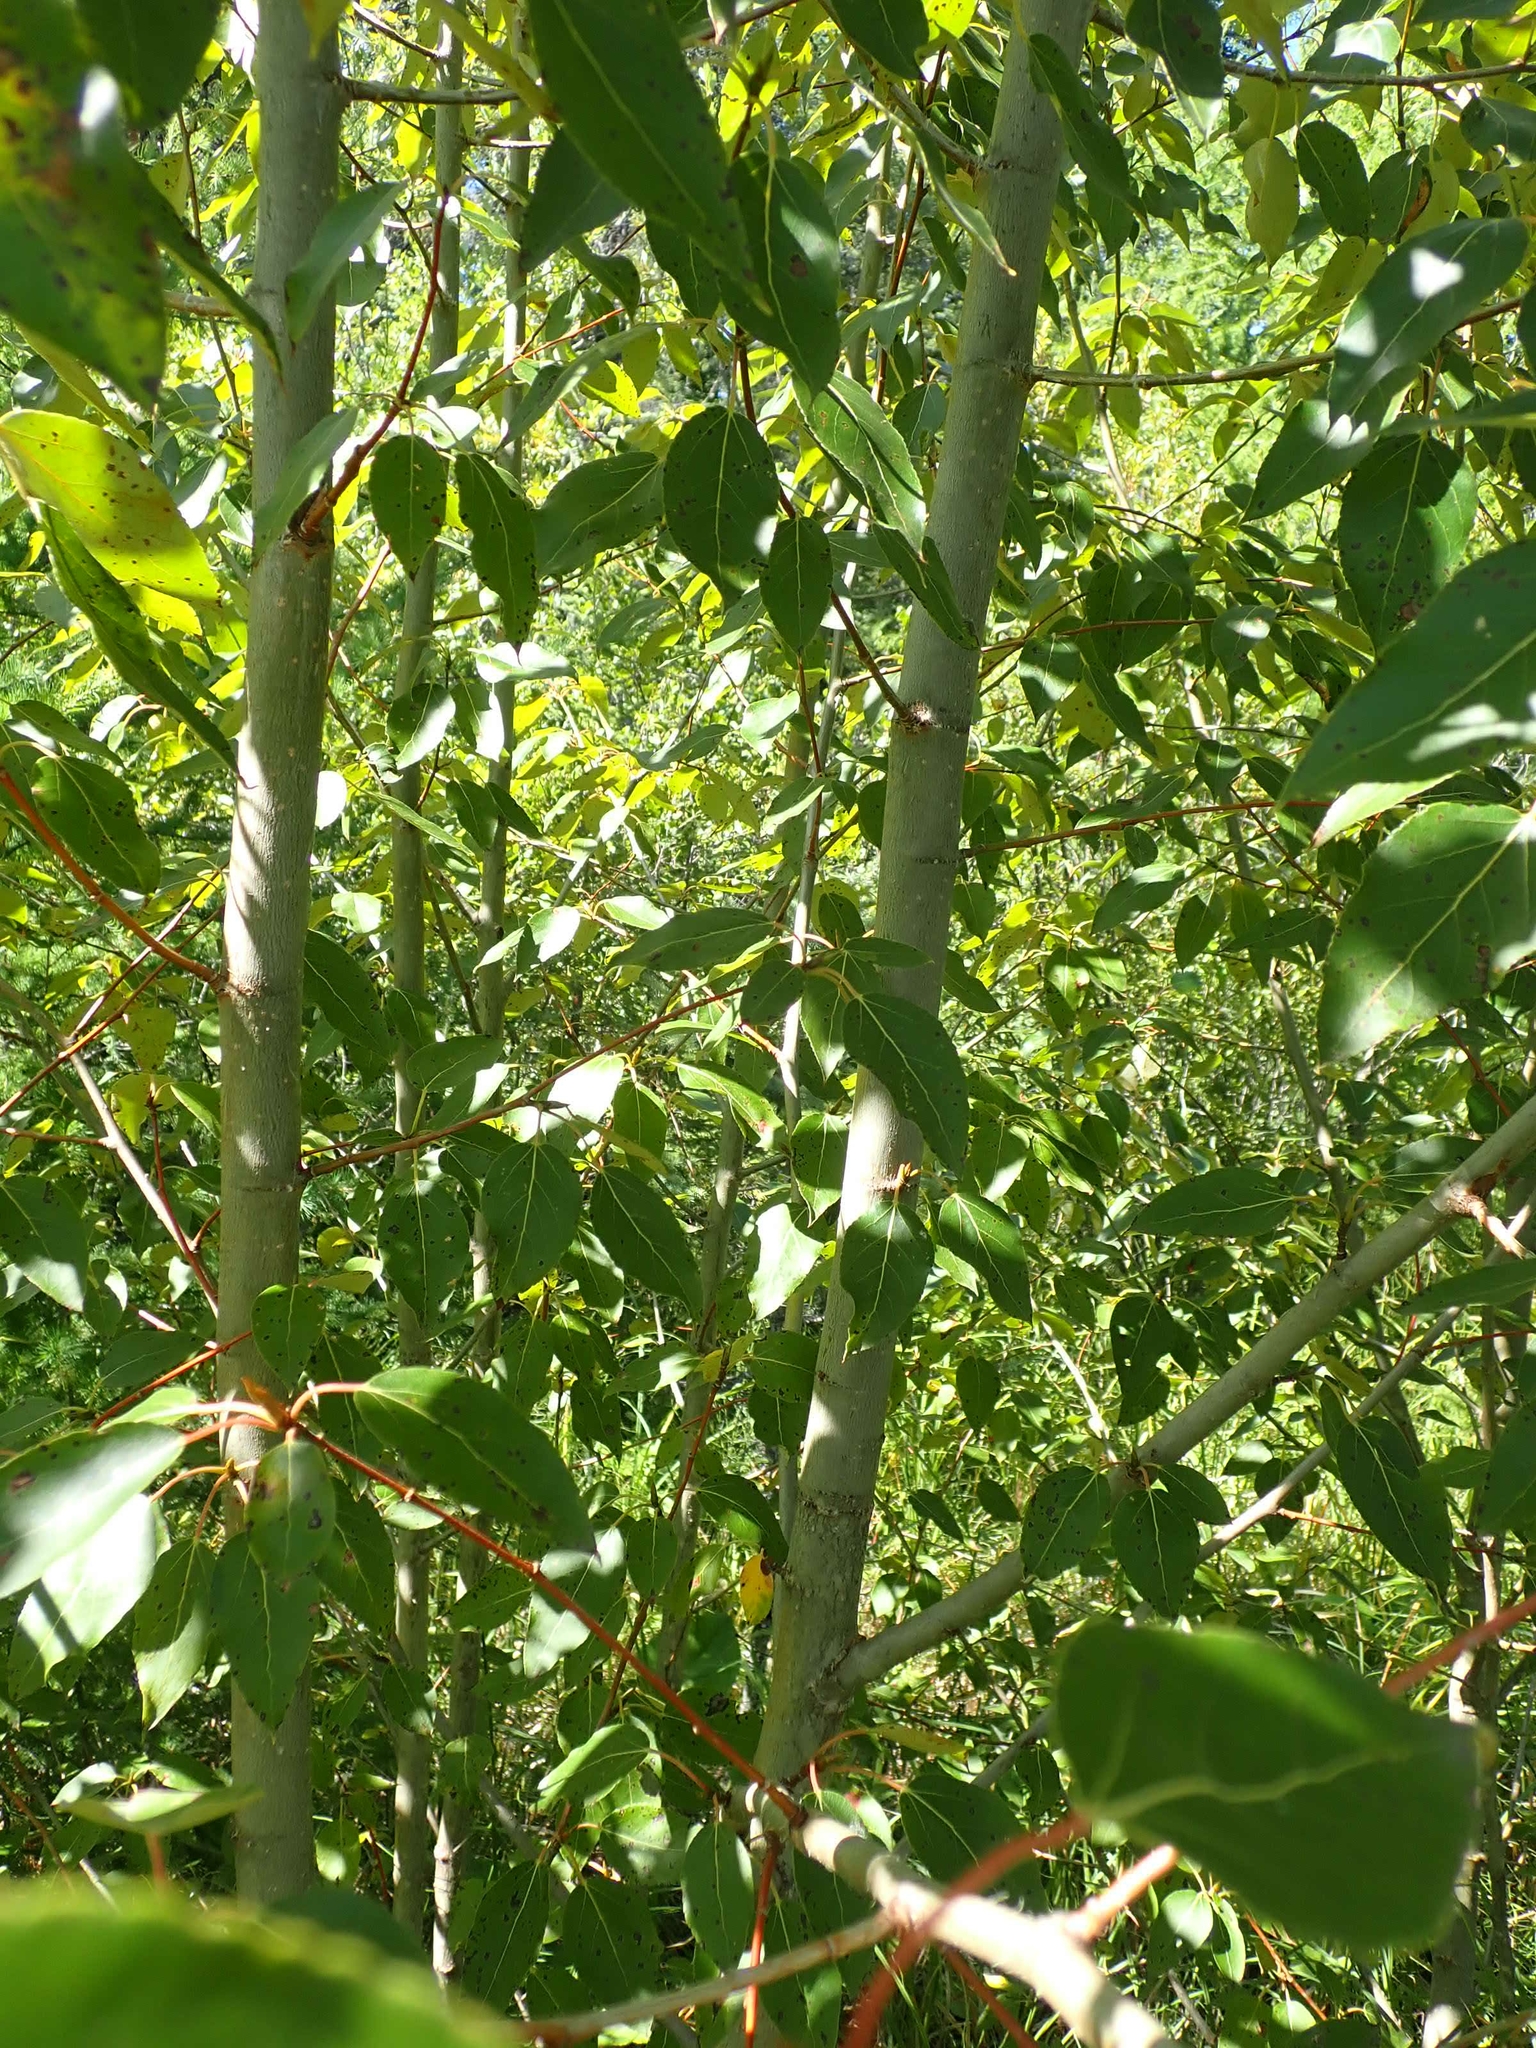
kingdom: Plantae
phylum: Tracheophyta
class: Magnoliopsida
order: Malpighiales
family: Salicaceae
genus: Populus
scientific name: Populus balsamifera
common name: Balsam poplar
